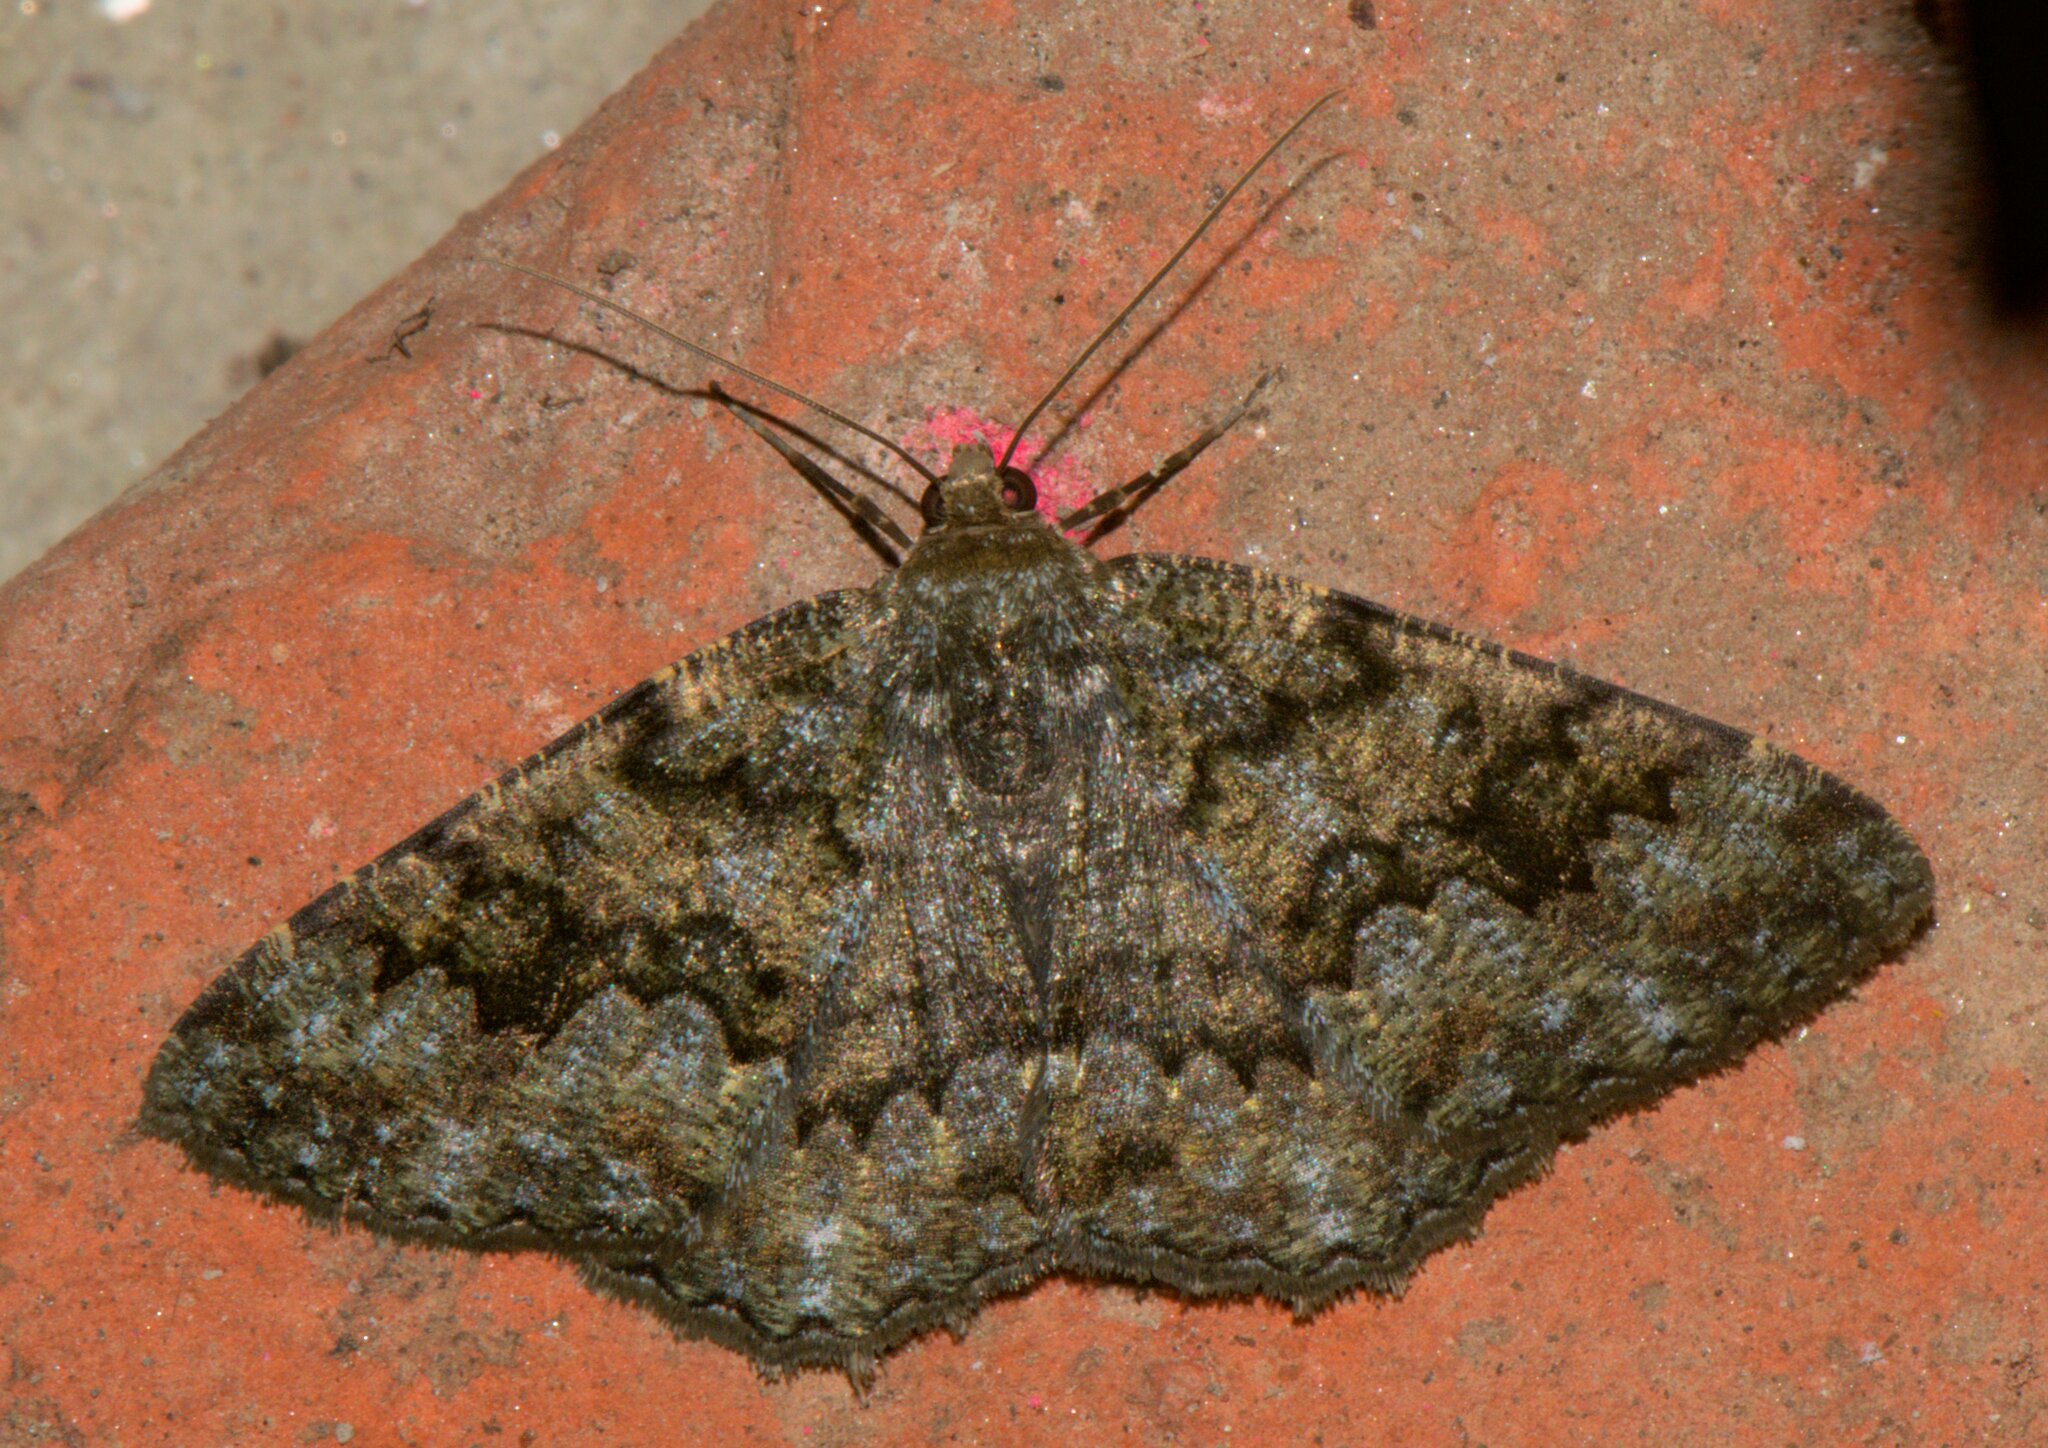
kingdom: Animalia
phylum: Arthropoda
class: Insecta
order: Lepidoptera
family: Geometridae
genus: Hirasa
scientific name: Hirasa muscosaria
